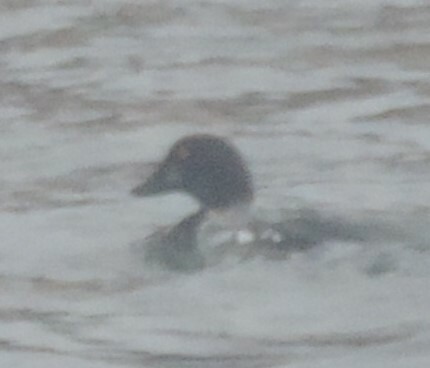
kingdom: Animalia
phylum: Chordata
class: Aves
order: Anseriformes
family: Anatidae
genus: Bucephala
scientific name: Bucephala clangula
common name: Common goldeneye
